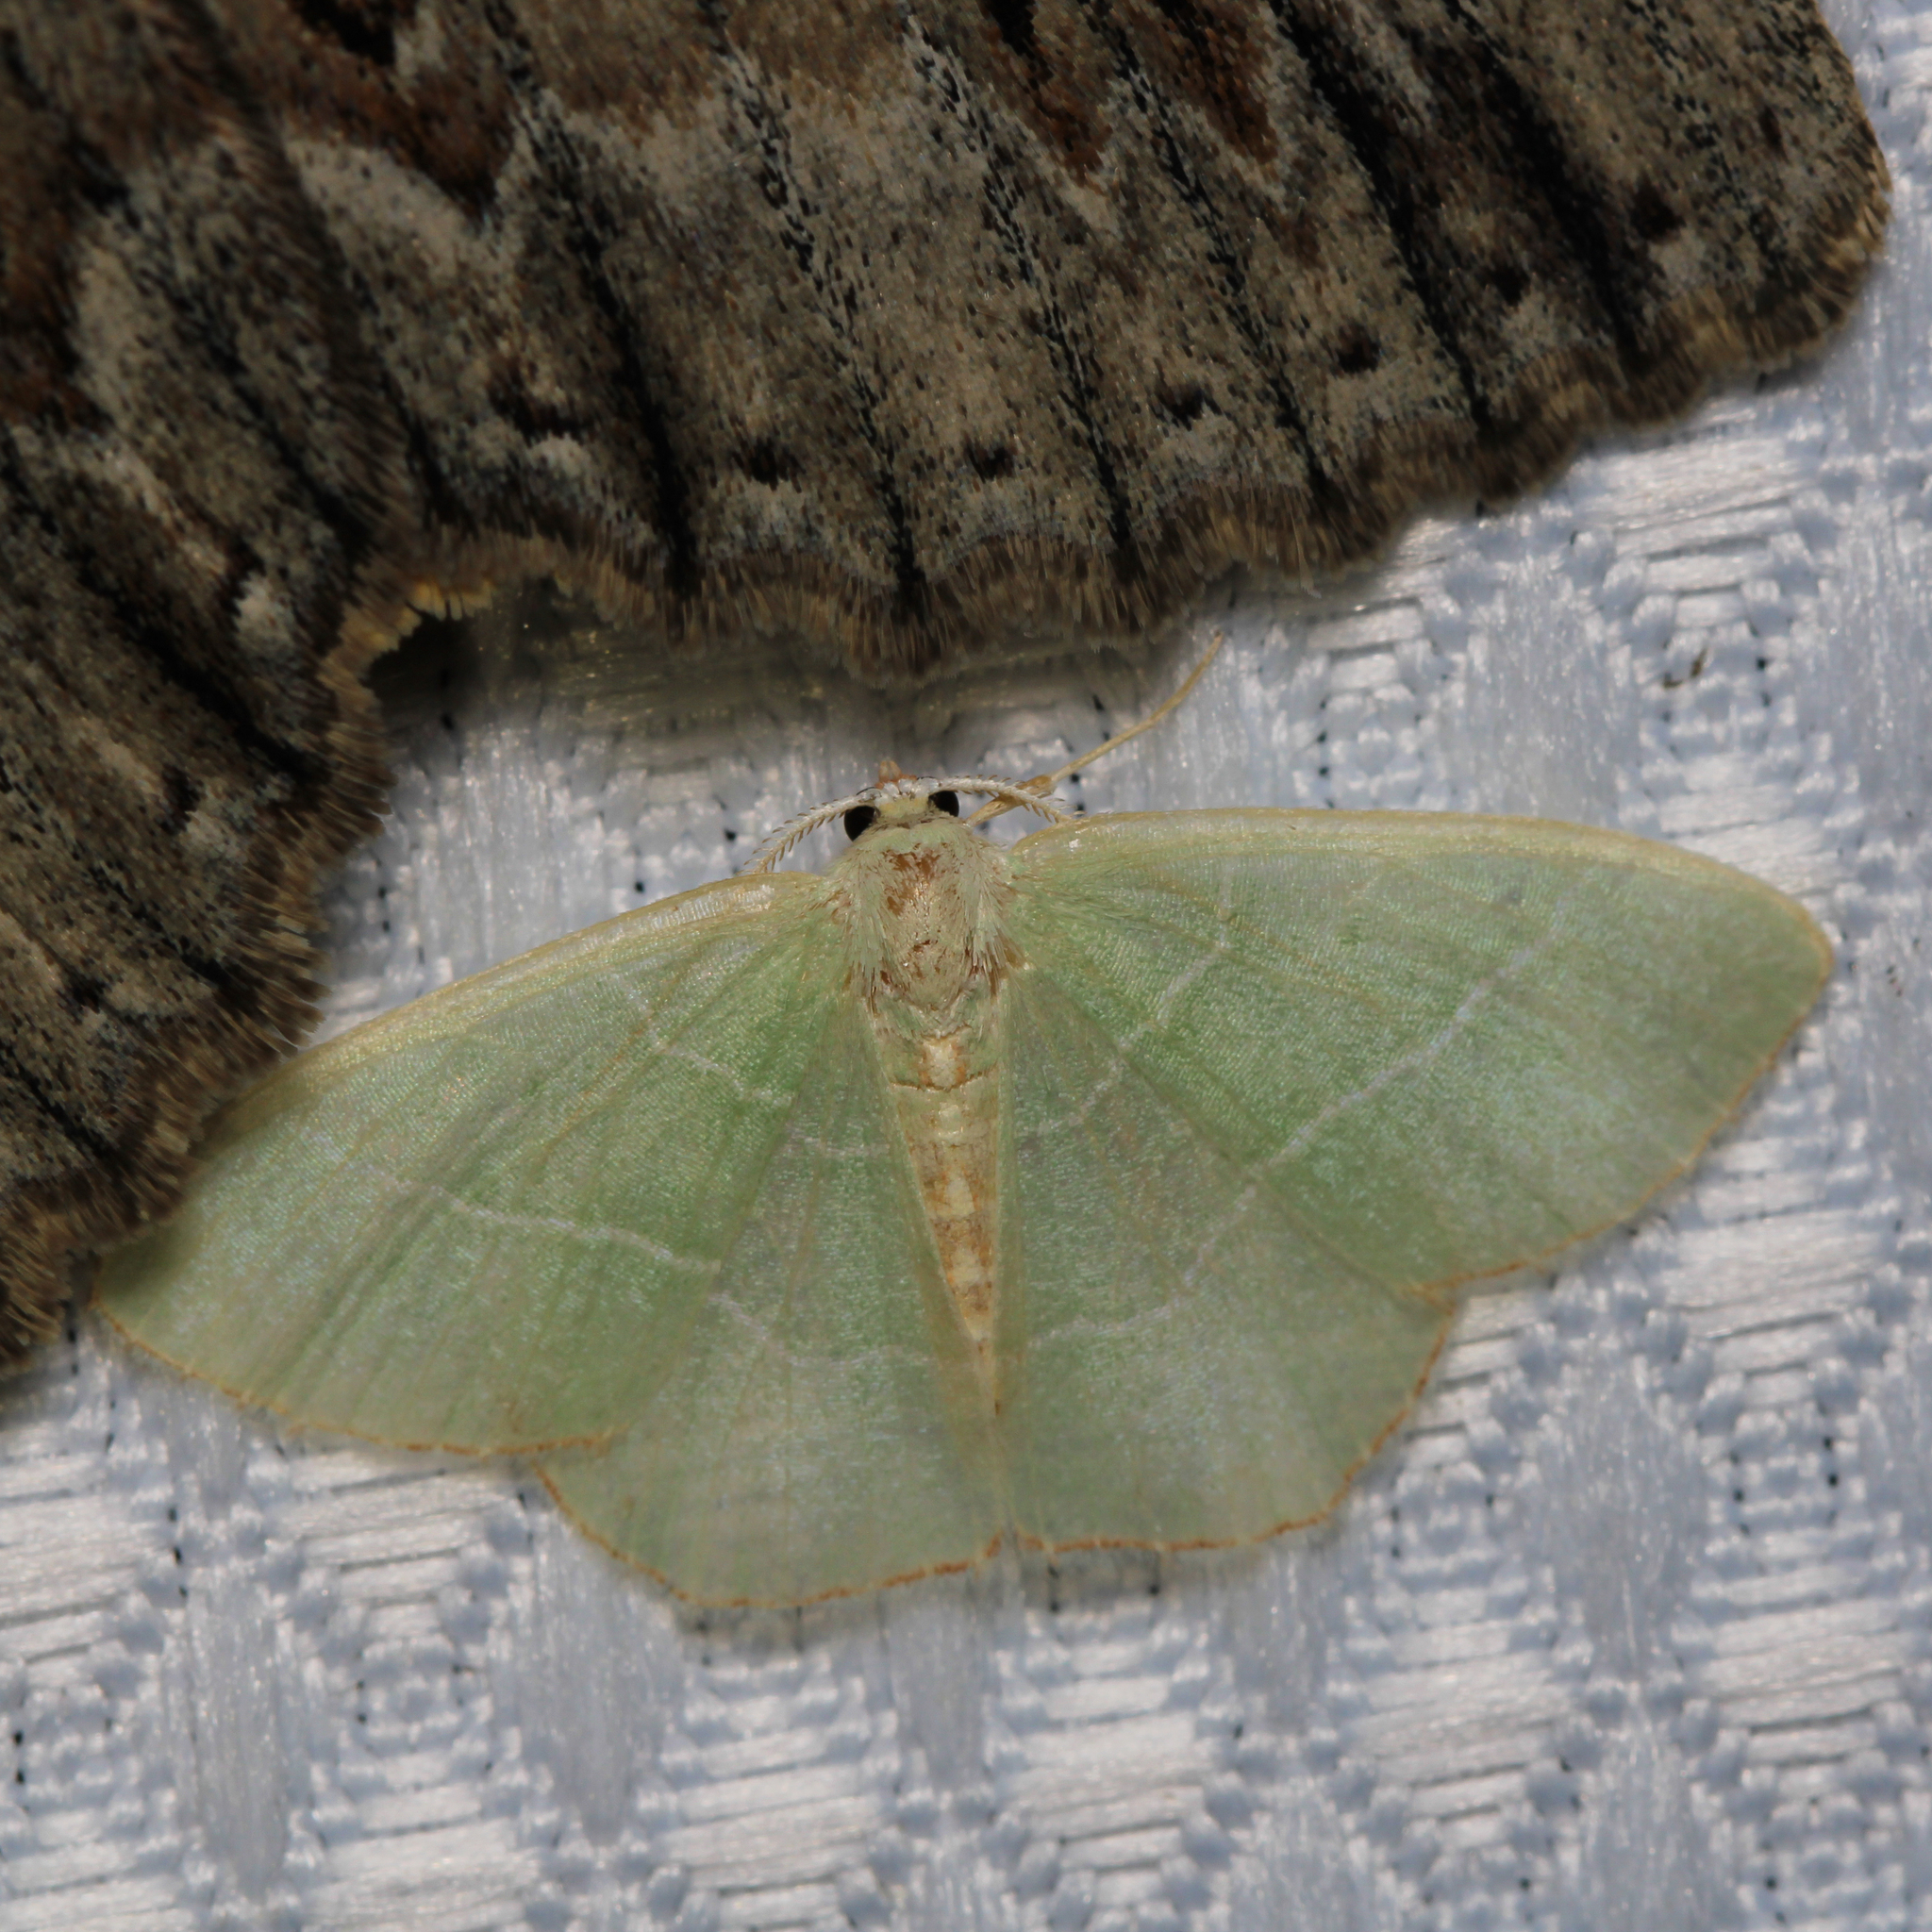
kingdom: Animalia
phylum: Arthropoda
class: Insecta
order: Lepidoptera
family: Geometridae
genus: Nemoria
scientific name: Nemoria bistriaria
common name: Red-fringed emerald
